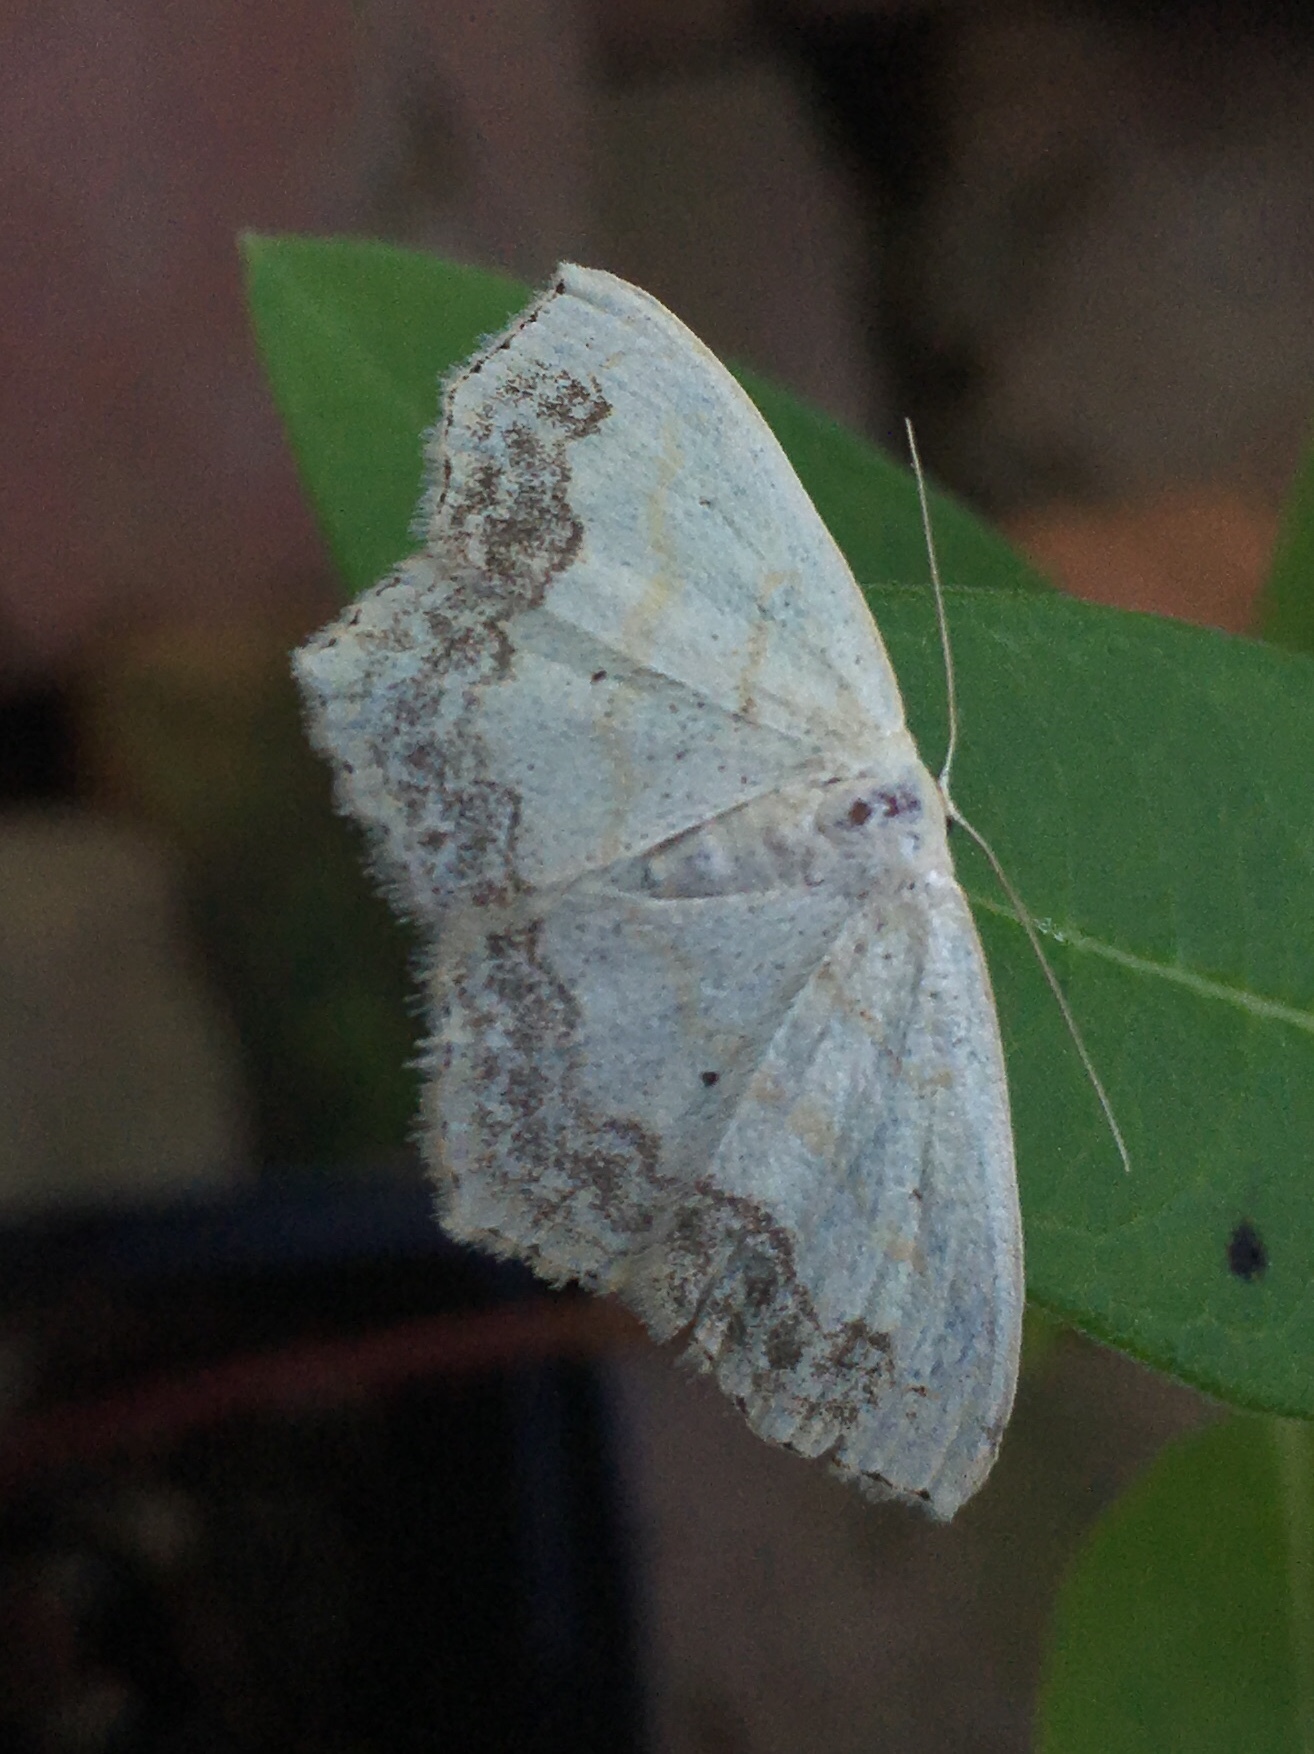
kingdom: Animalia
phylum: Arthropoda
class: Insecta
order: Lepidoptera
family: Geometridae
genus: Scopula
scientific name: Scopula limboundata
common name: Large lace border
